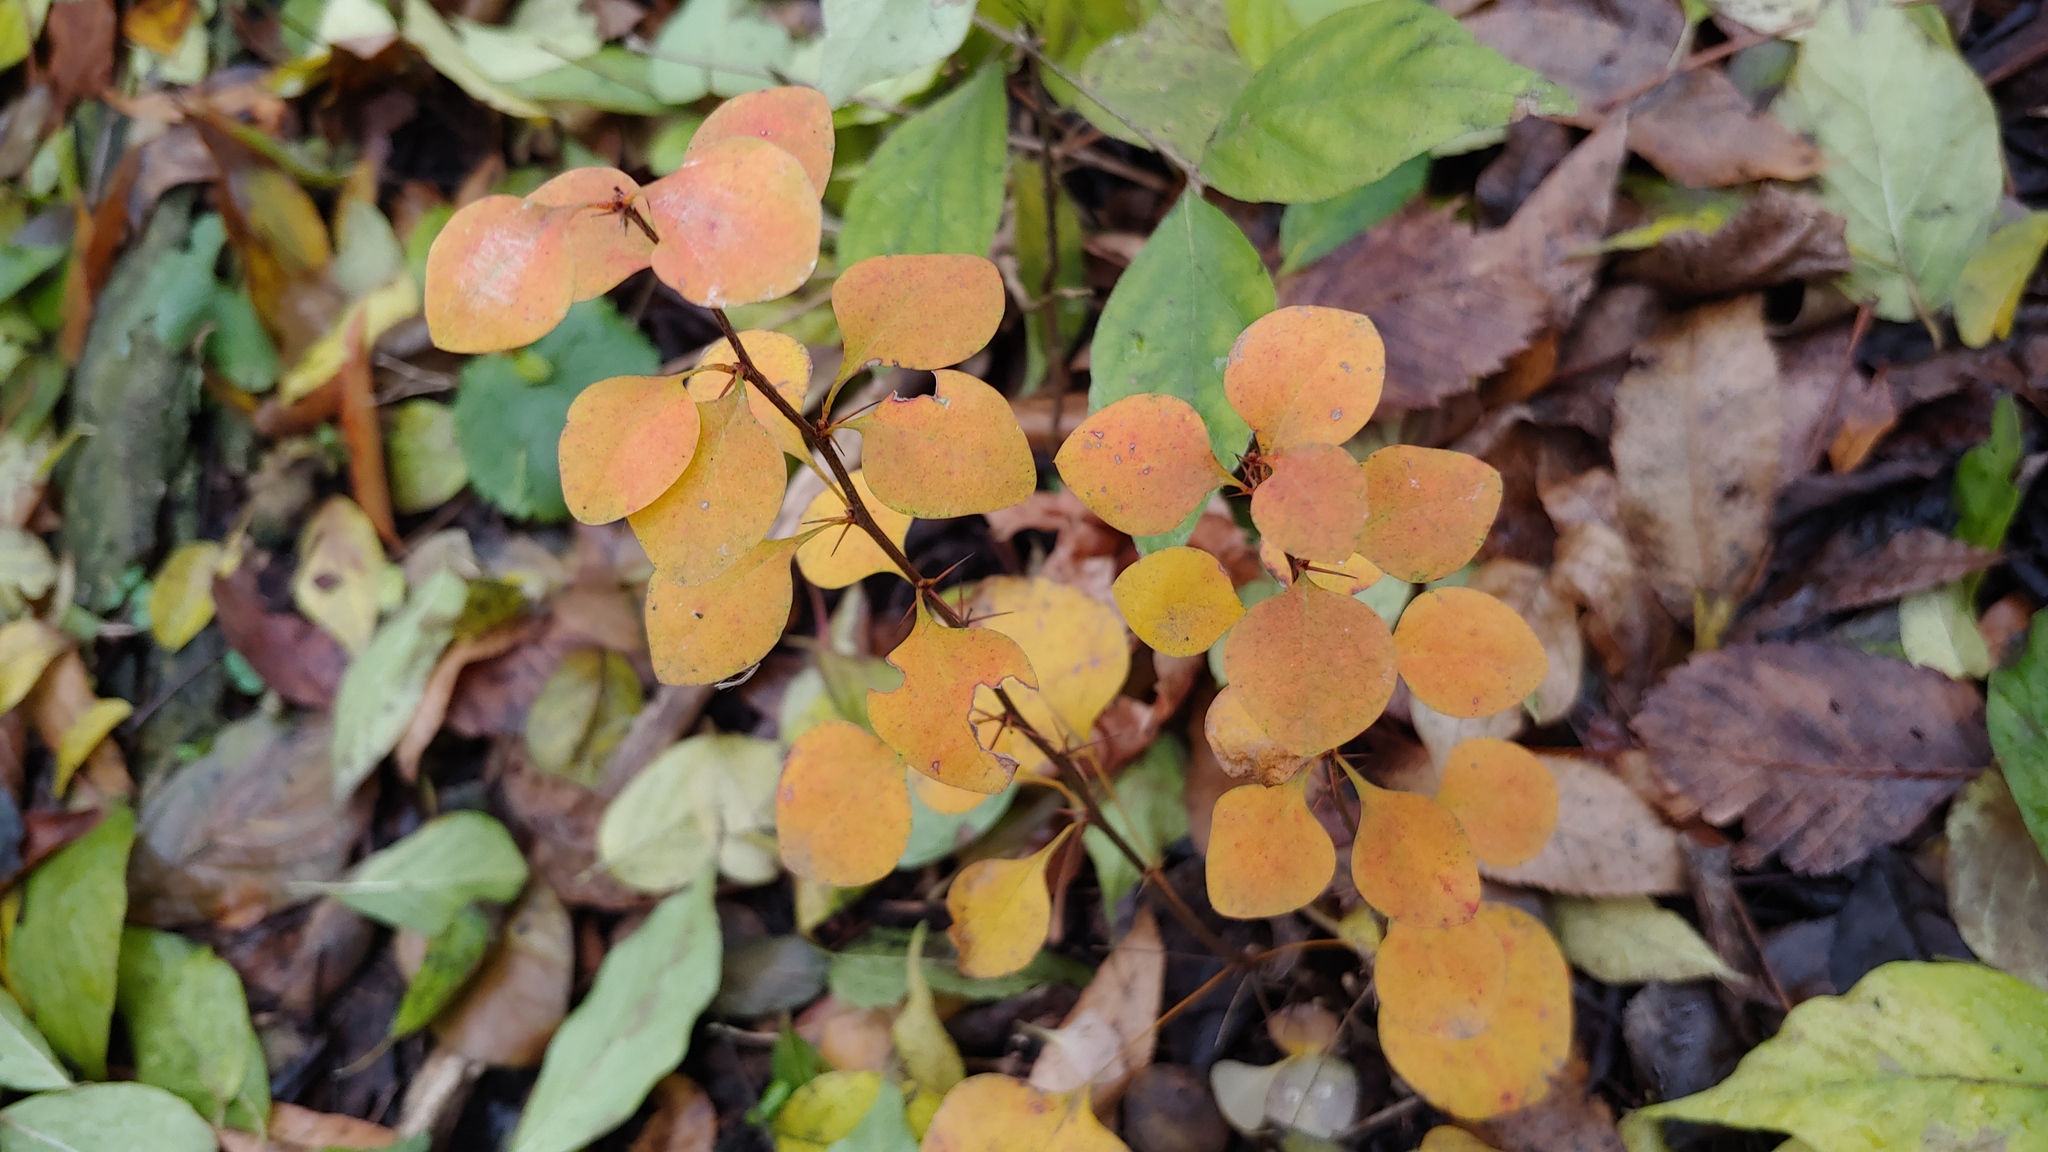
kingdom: Plantae
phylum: Tracheophyta
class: Magnoliopsida
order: Ranunculales
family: Berberidaceae
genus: Berberis
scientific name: Berberis thunbergii
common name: Japanese barberry
